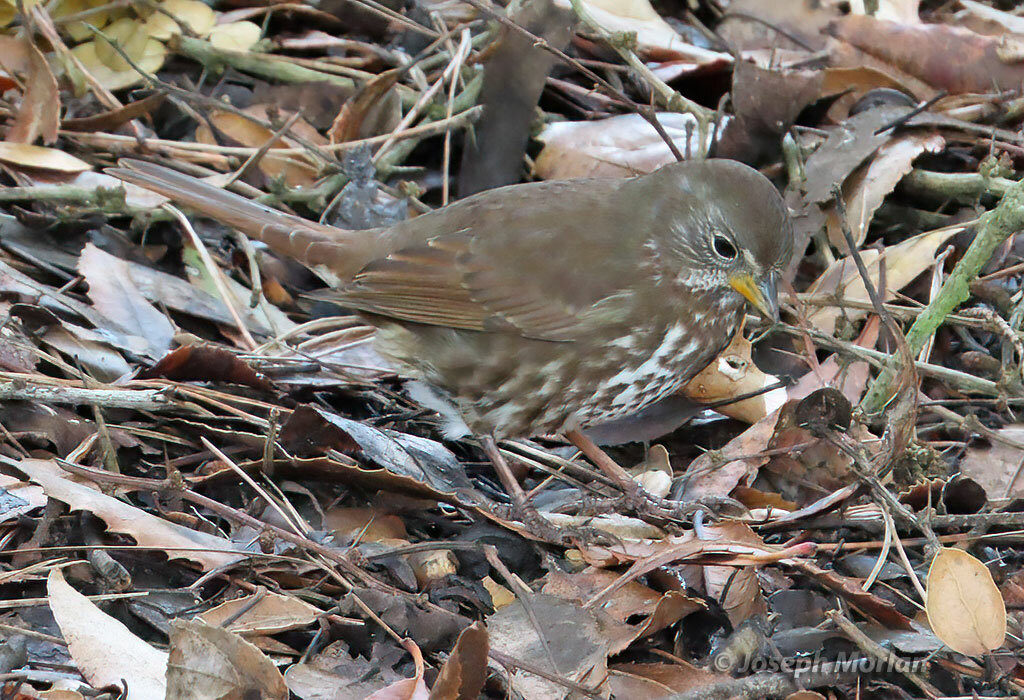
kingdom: Animalia
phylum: Chordata
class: Aves
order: Passeriformes
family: Passerellidae
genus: Passerella
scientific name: Passerella iliaca
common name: Fox sparrow
